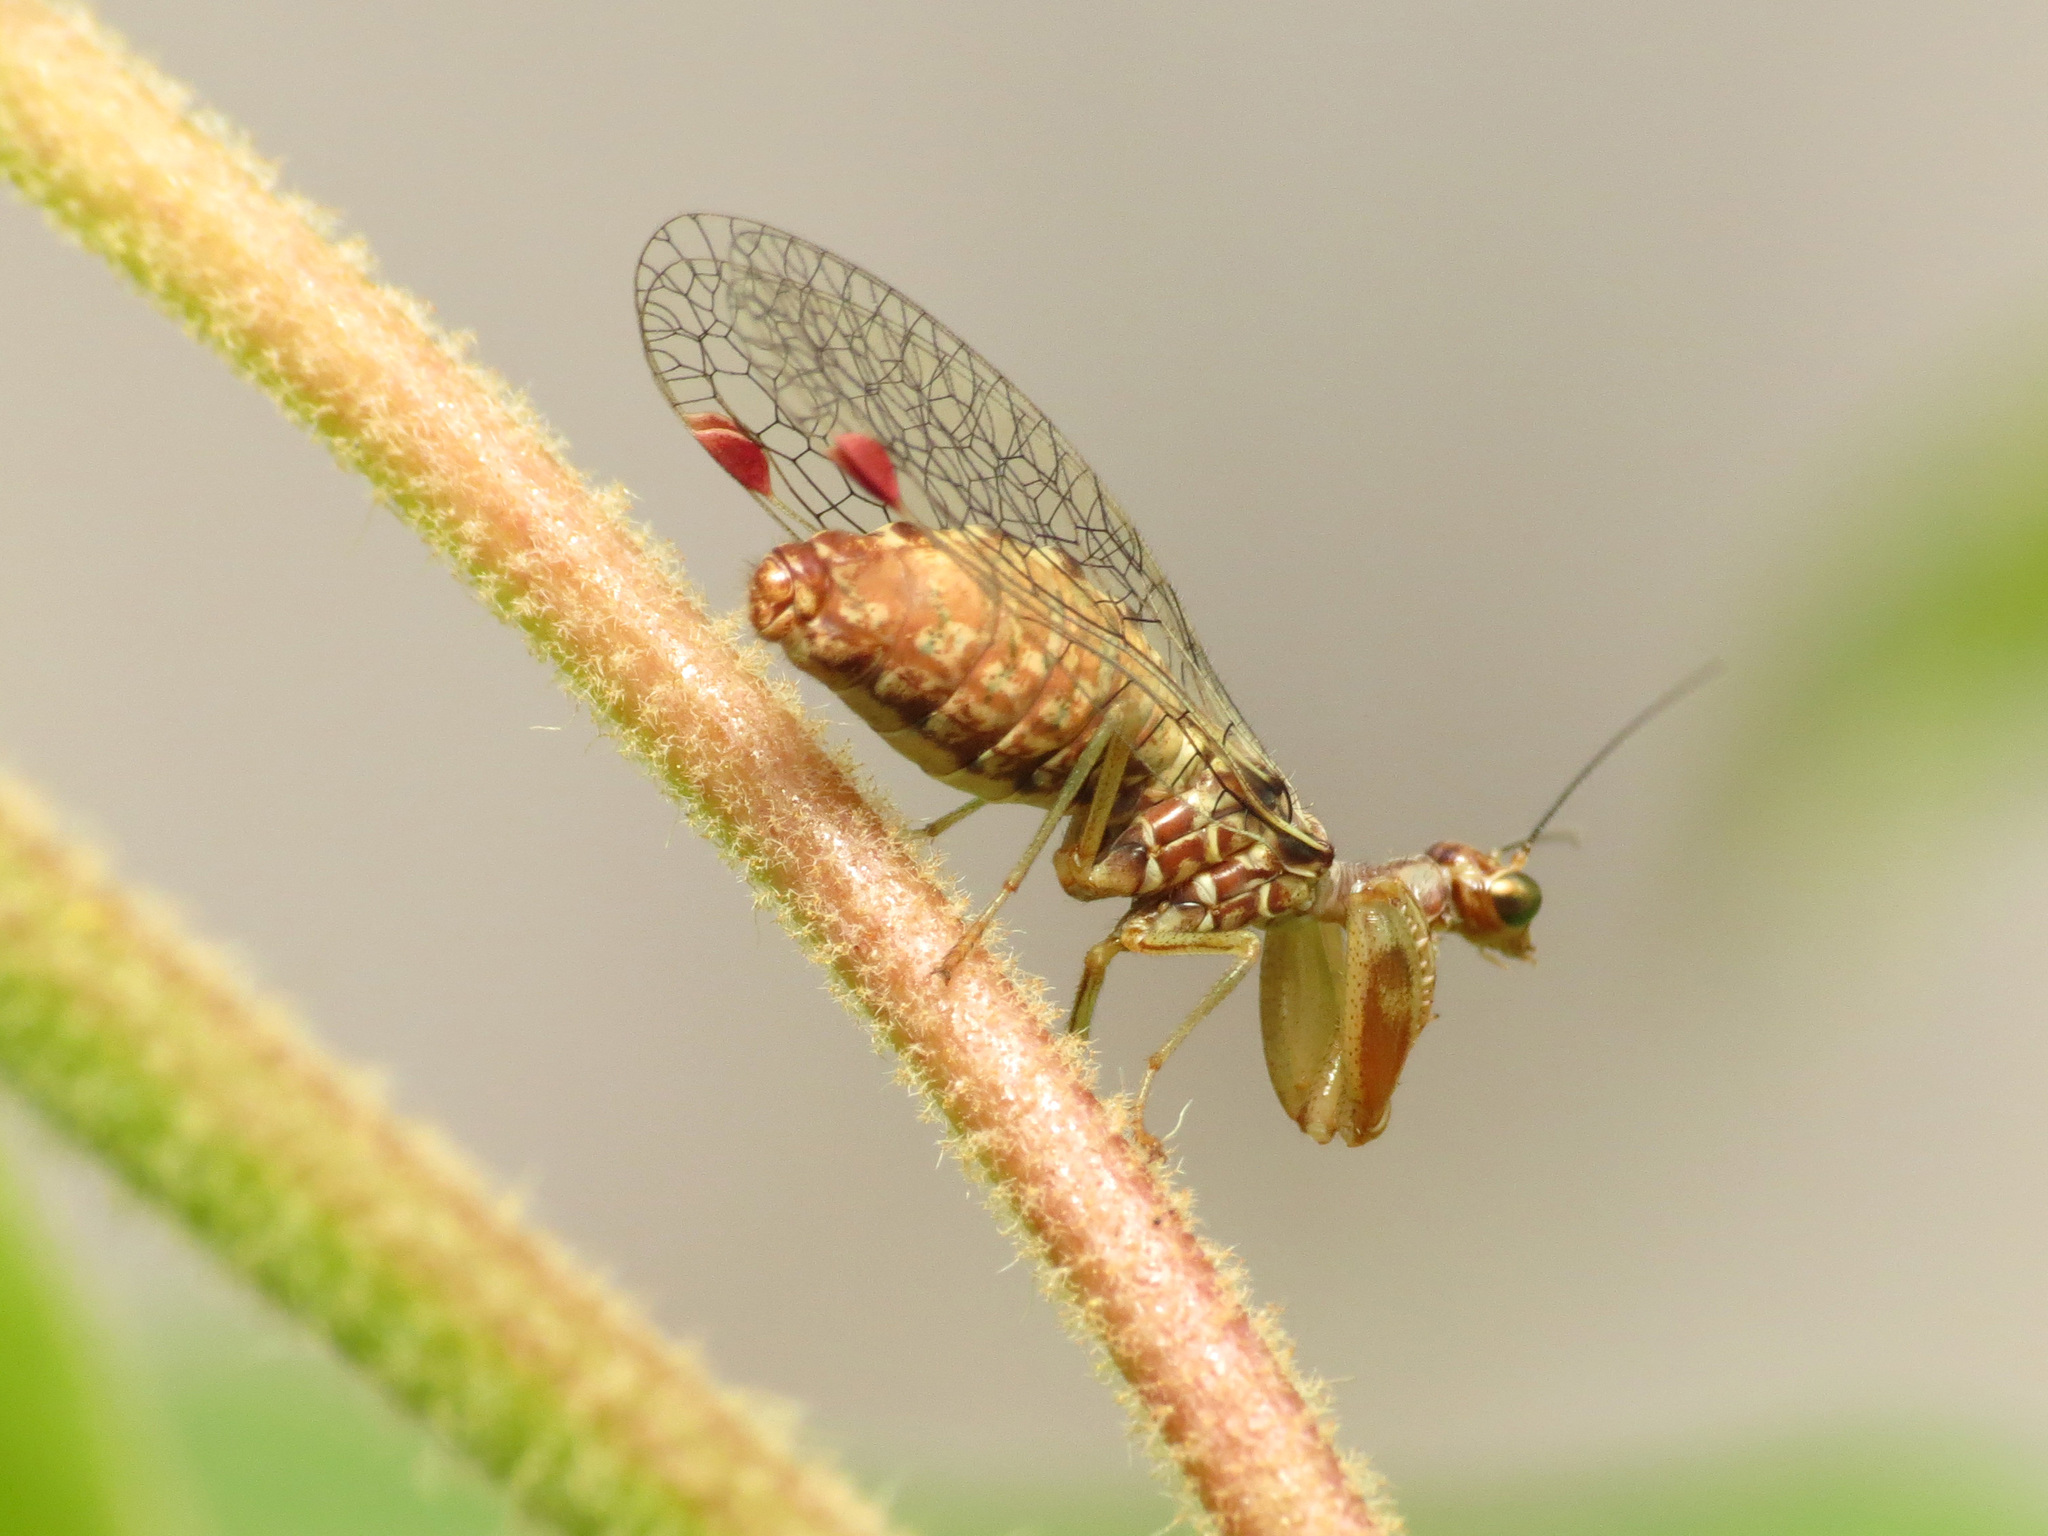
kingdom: Animalia
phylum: Arthropoda
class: Insecta
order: Neuroptera
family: Mantispidae
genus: Nolima
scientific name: Nolima pinal
